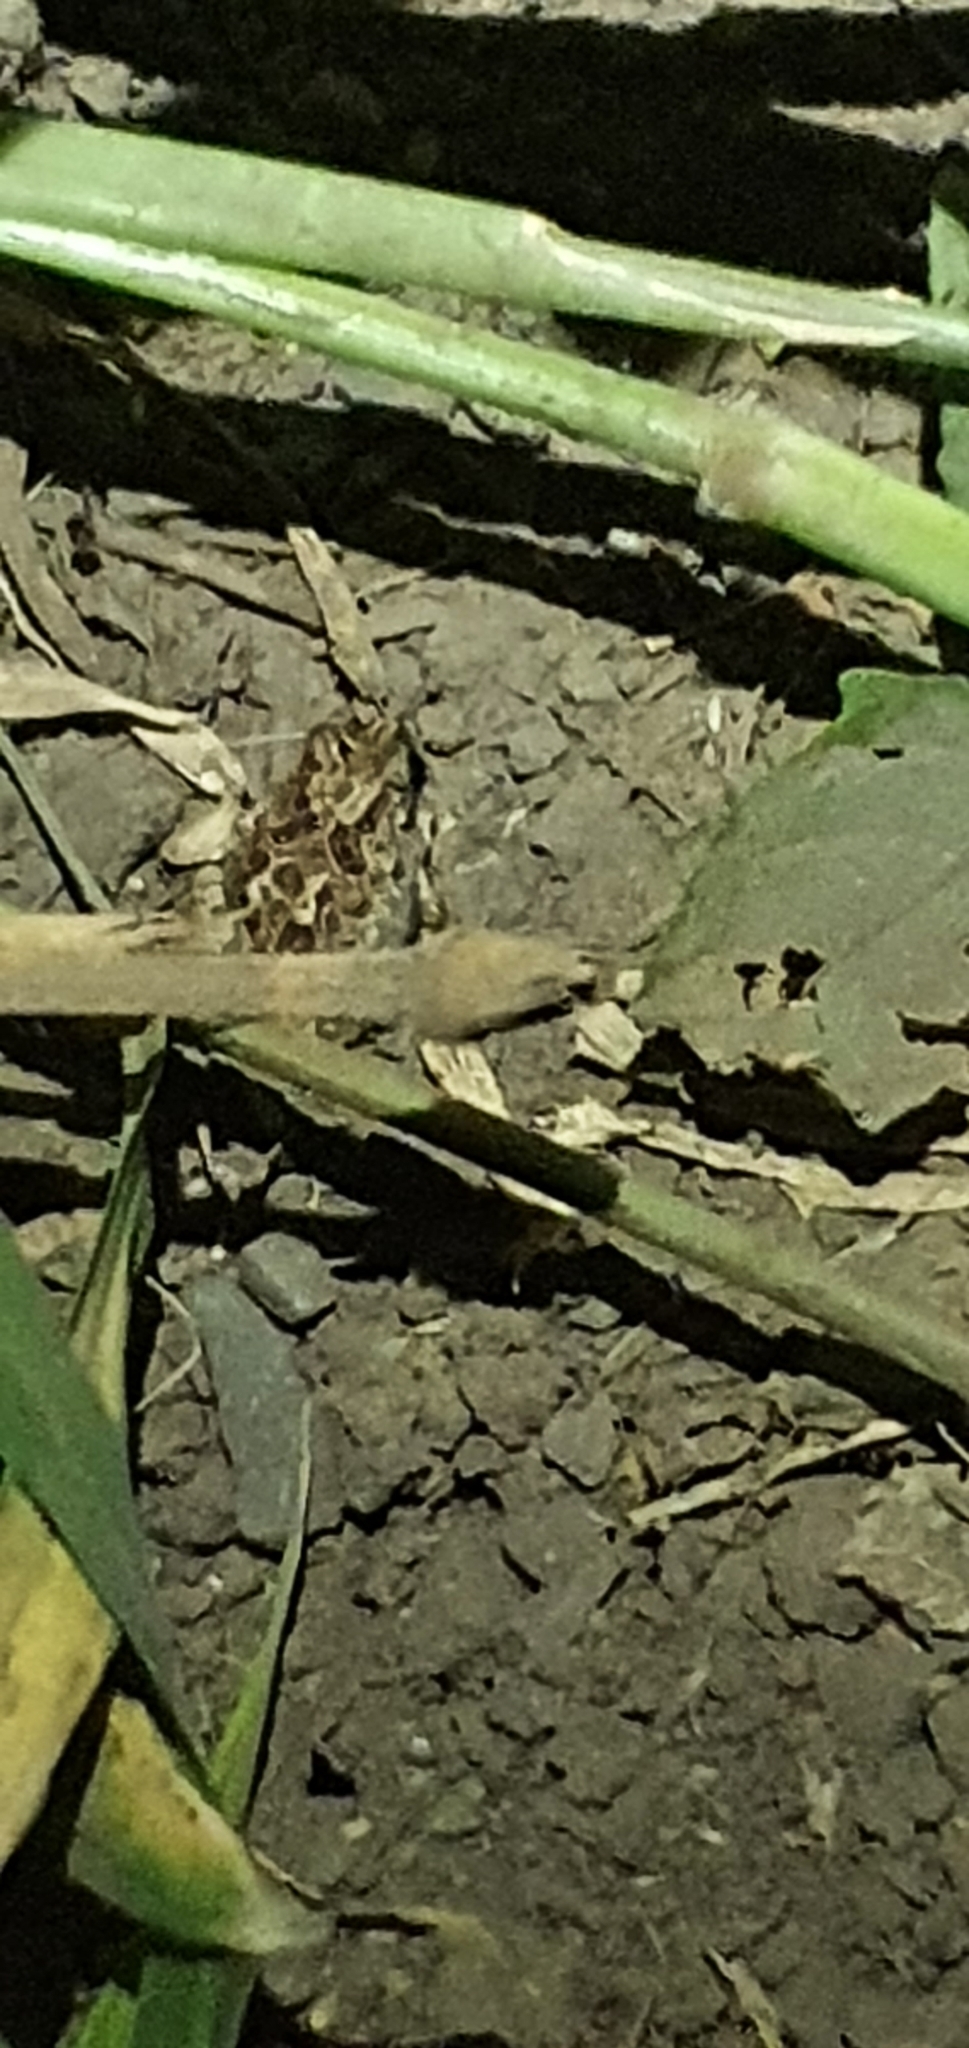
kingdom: Animalia
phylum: Chordata
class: Amphibia
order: Anura
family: Limnodynastidae
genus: Platyplectrum
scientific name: Platyplectrum ornatum
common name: Ornate burrowing frog
